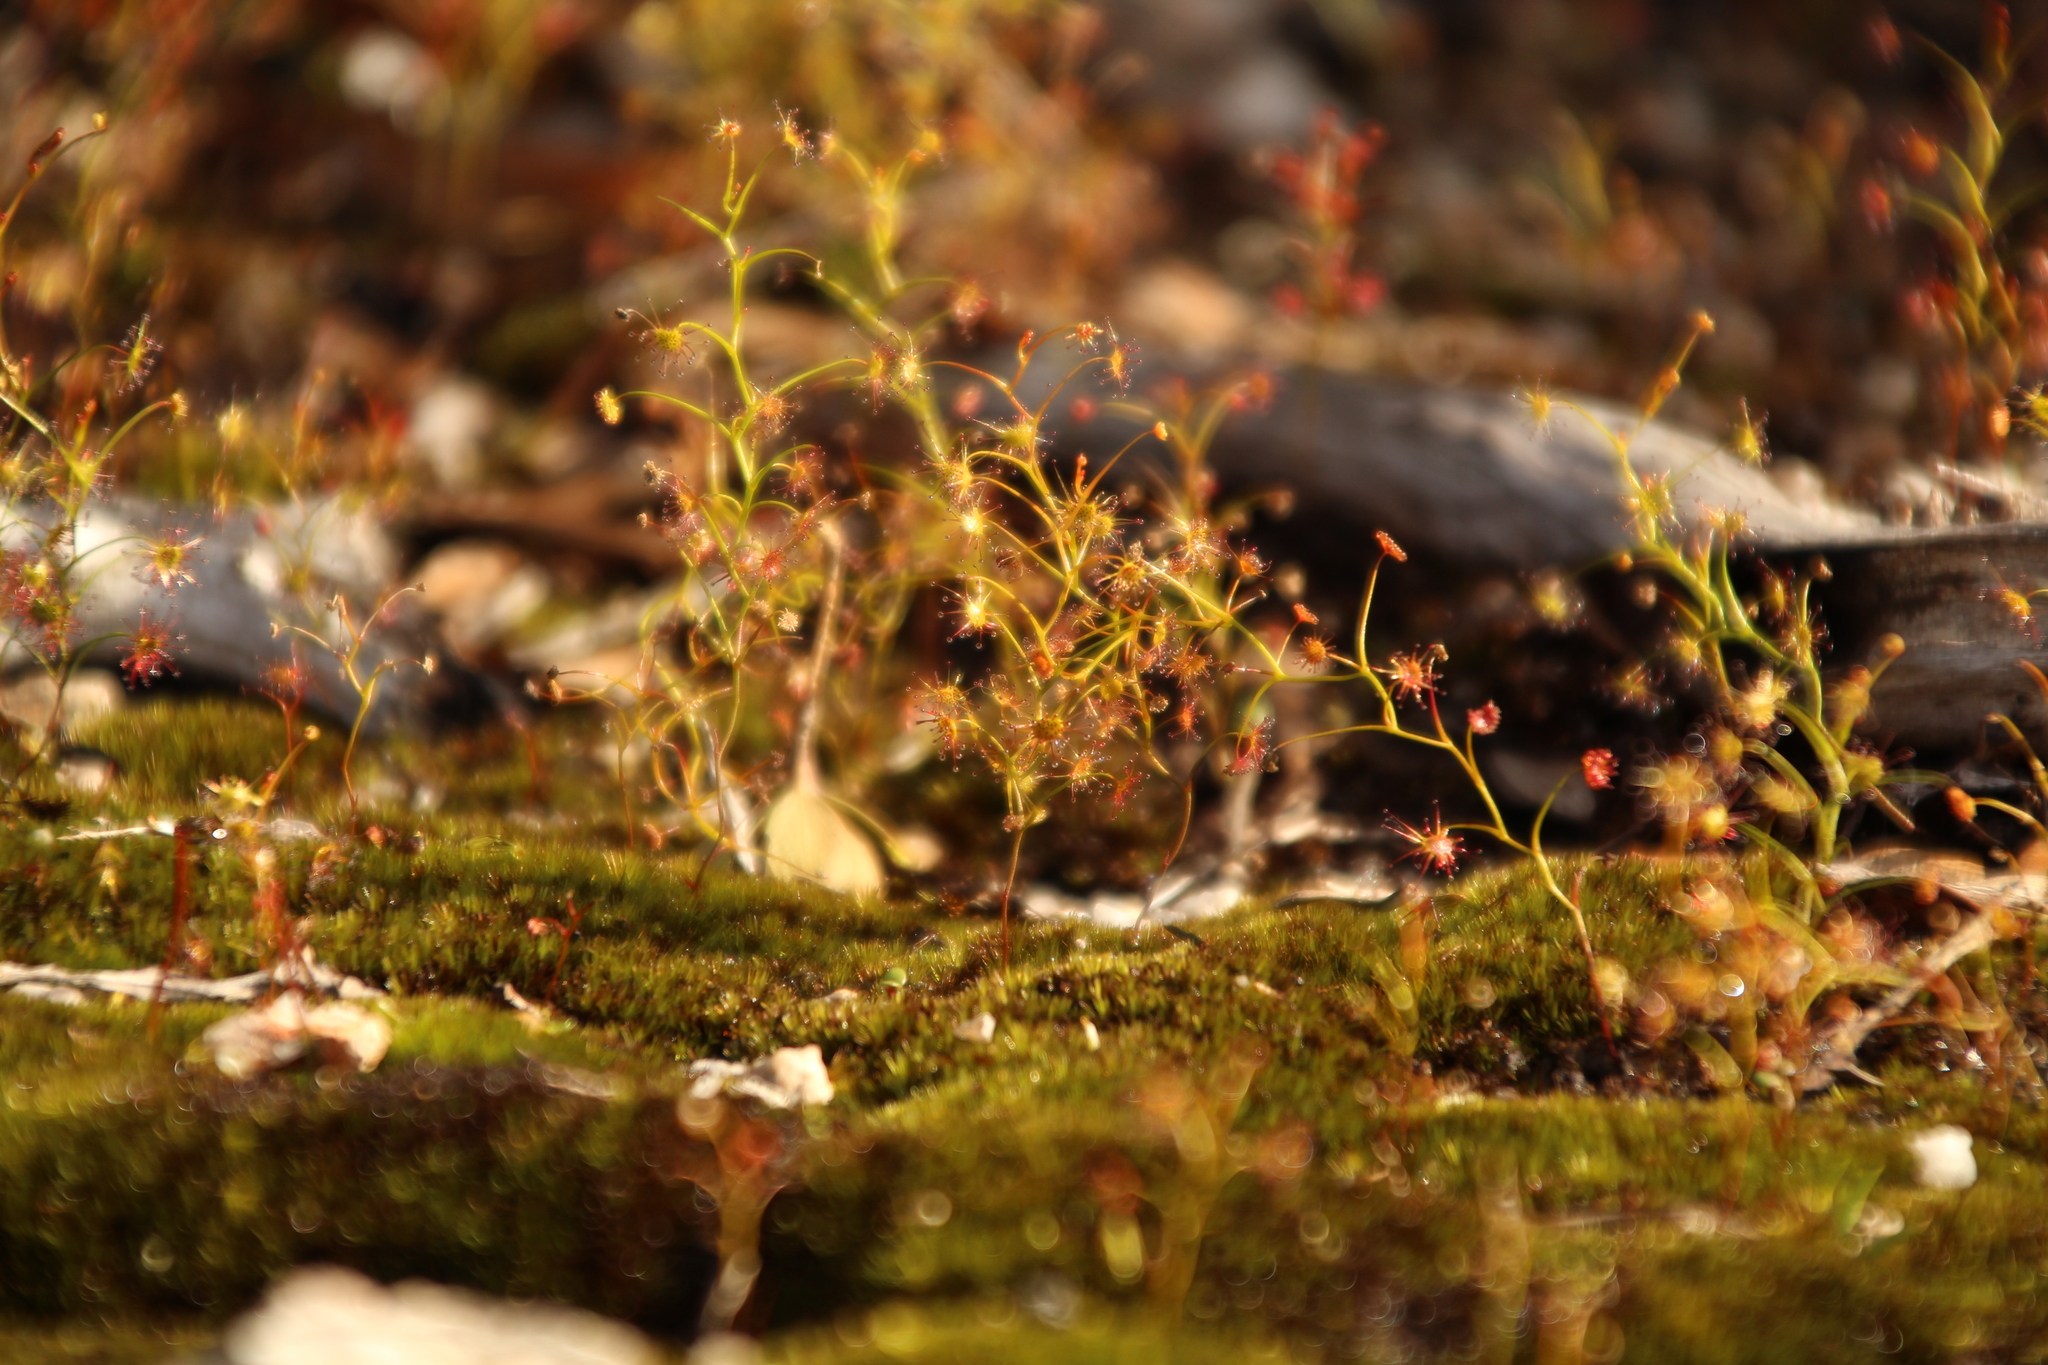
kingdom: Plantae
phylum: Tracheophyta
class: Magnoliopsida
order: Caryophyllales
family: Droseraceae
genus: Drosera
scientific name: Drosera erythrogyne
